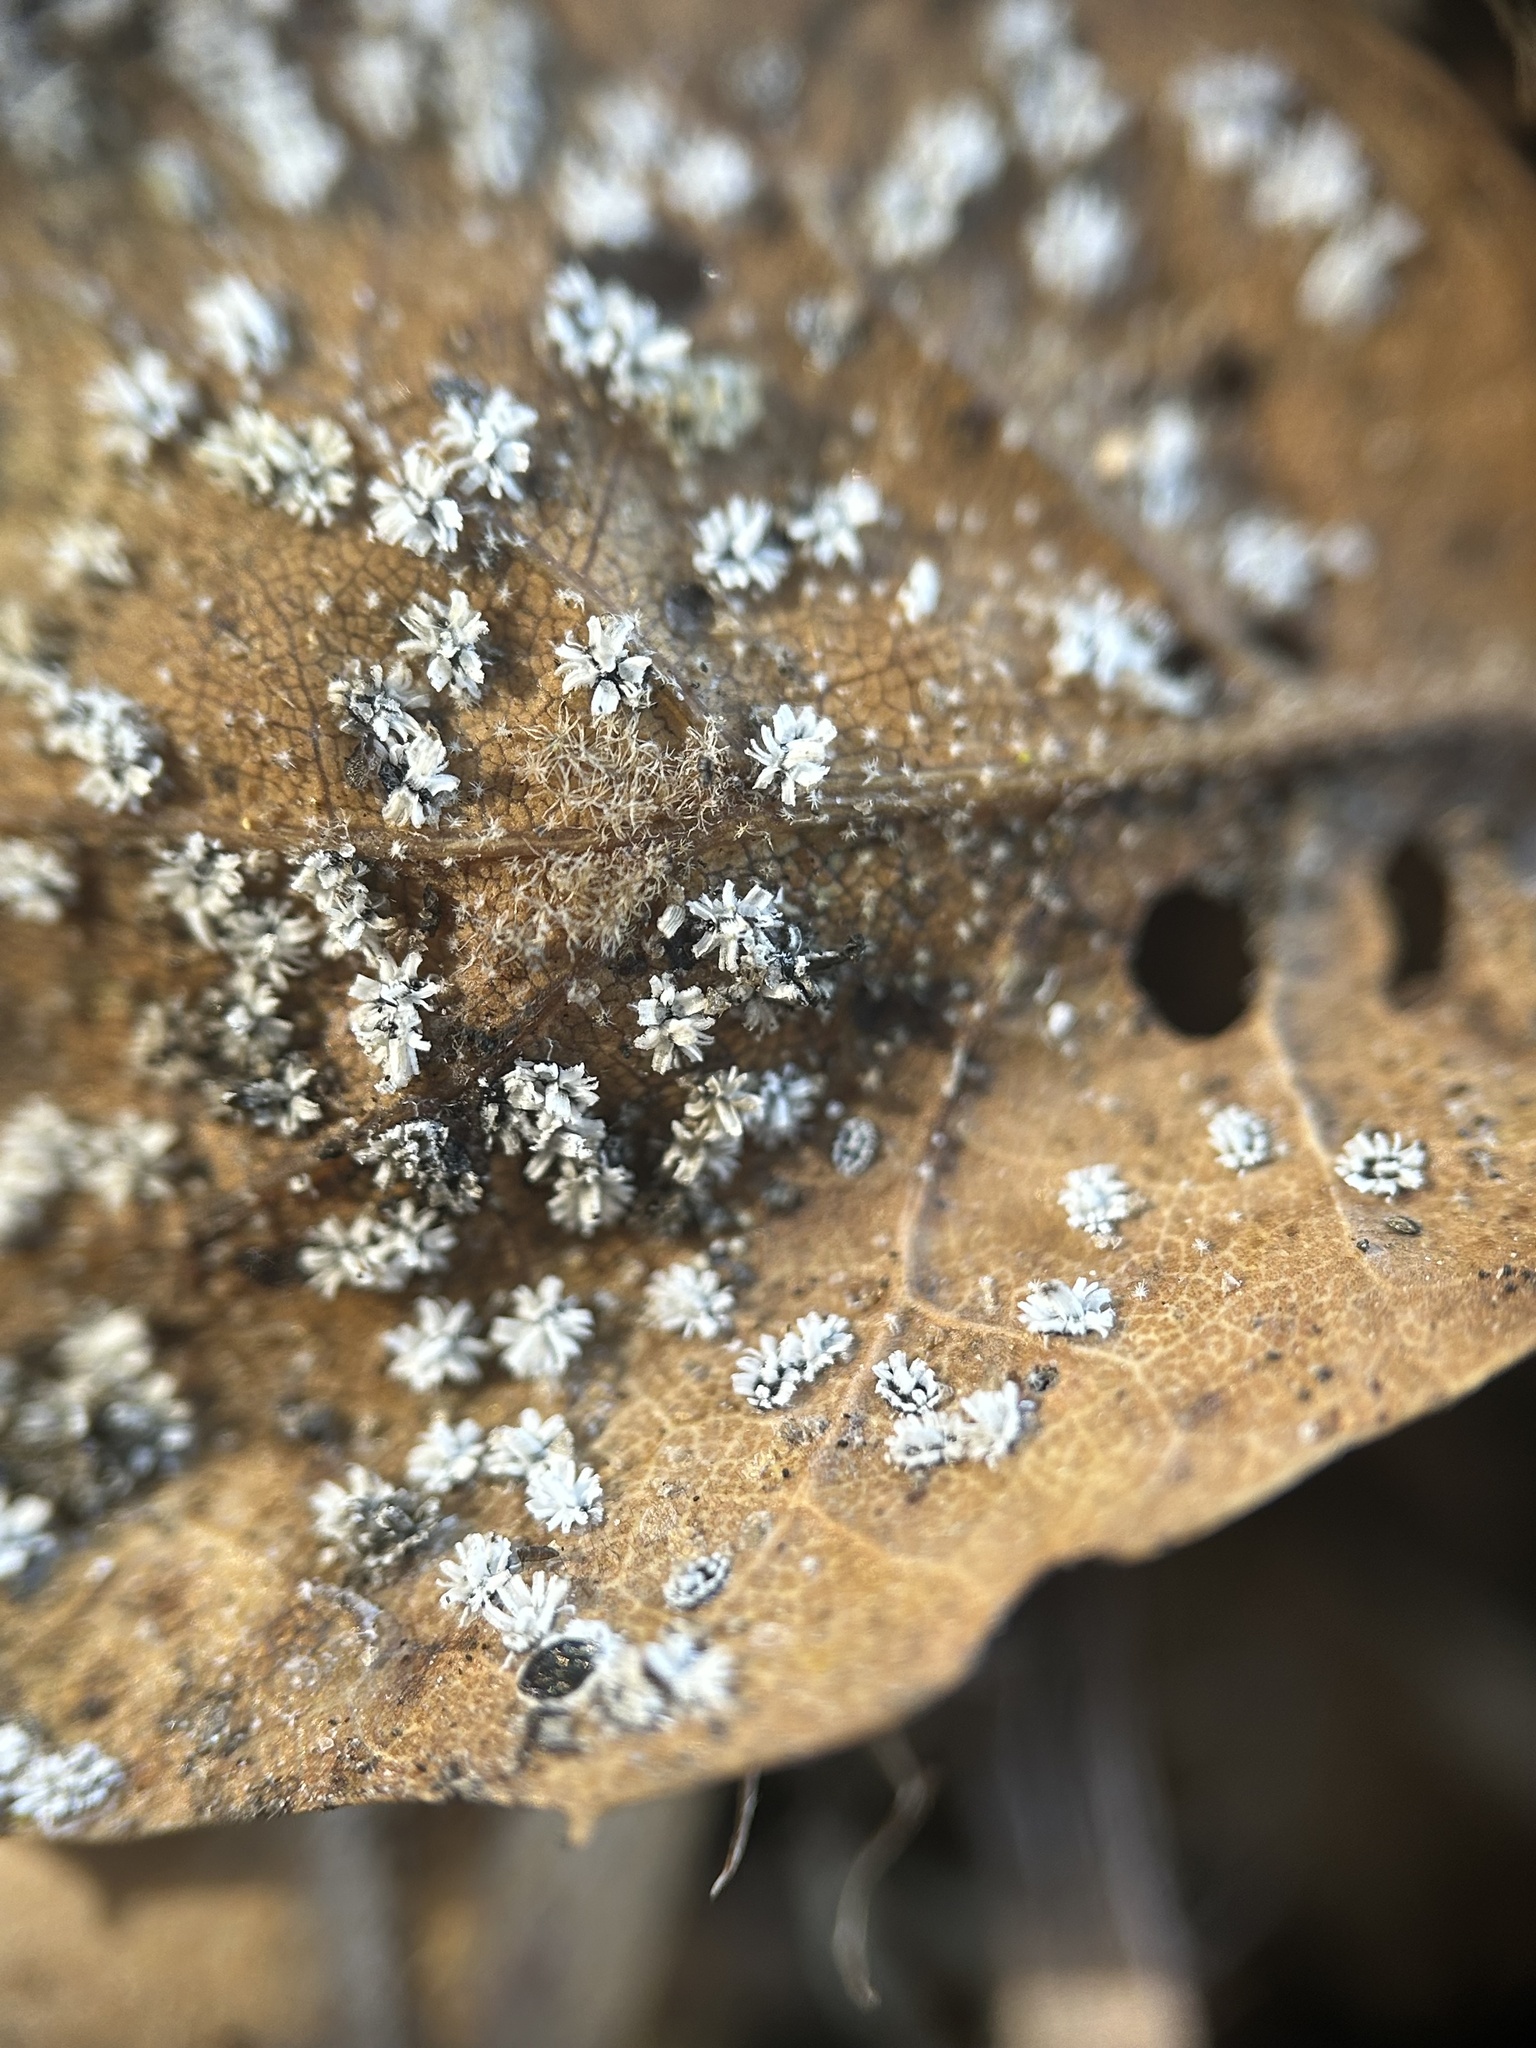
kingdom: Animalia
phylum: Arthropoda
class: Insecta
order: Hemiptera
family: Aleyrodidae
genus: Aleuroplatus
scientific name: Aleuroplatus coronata
